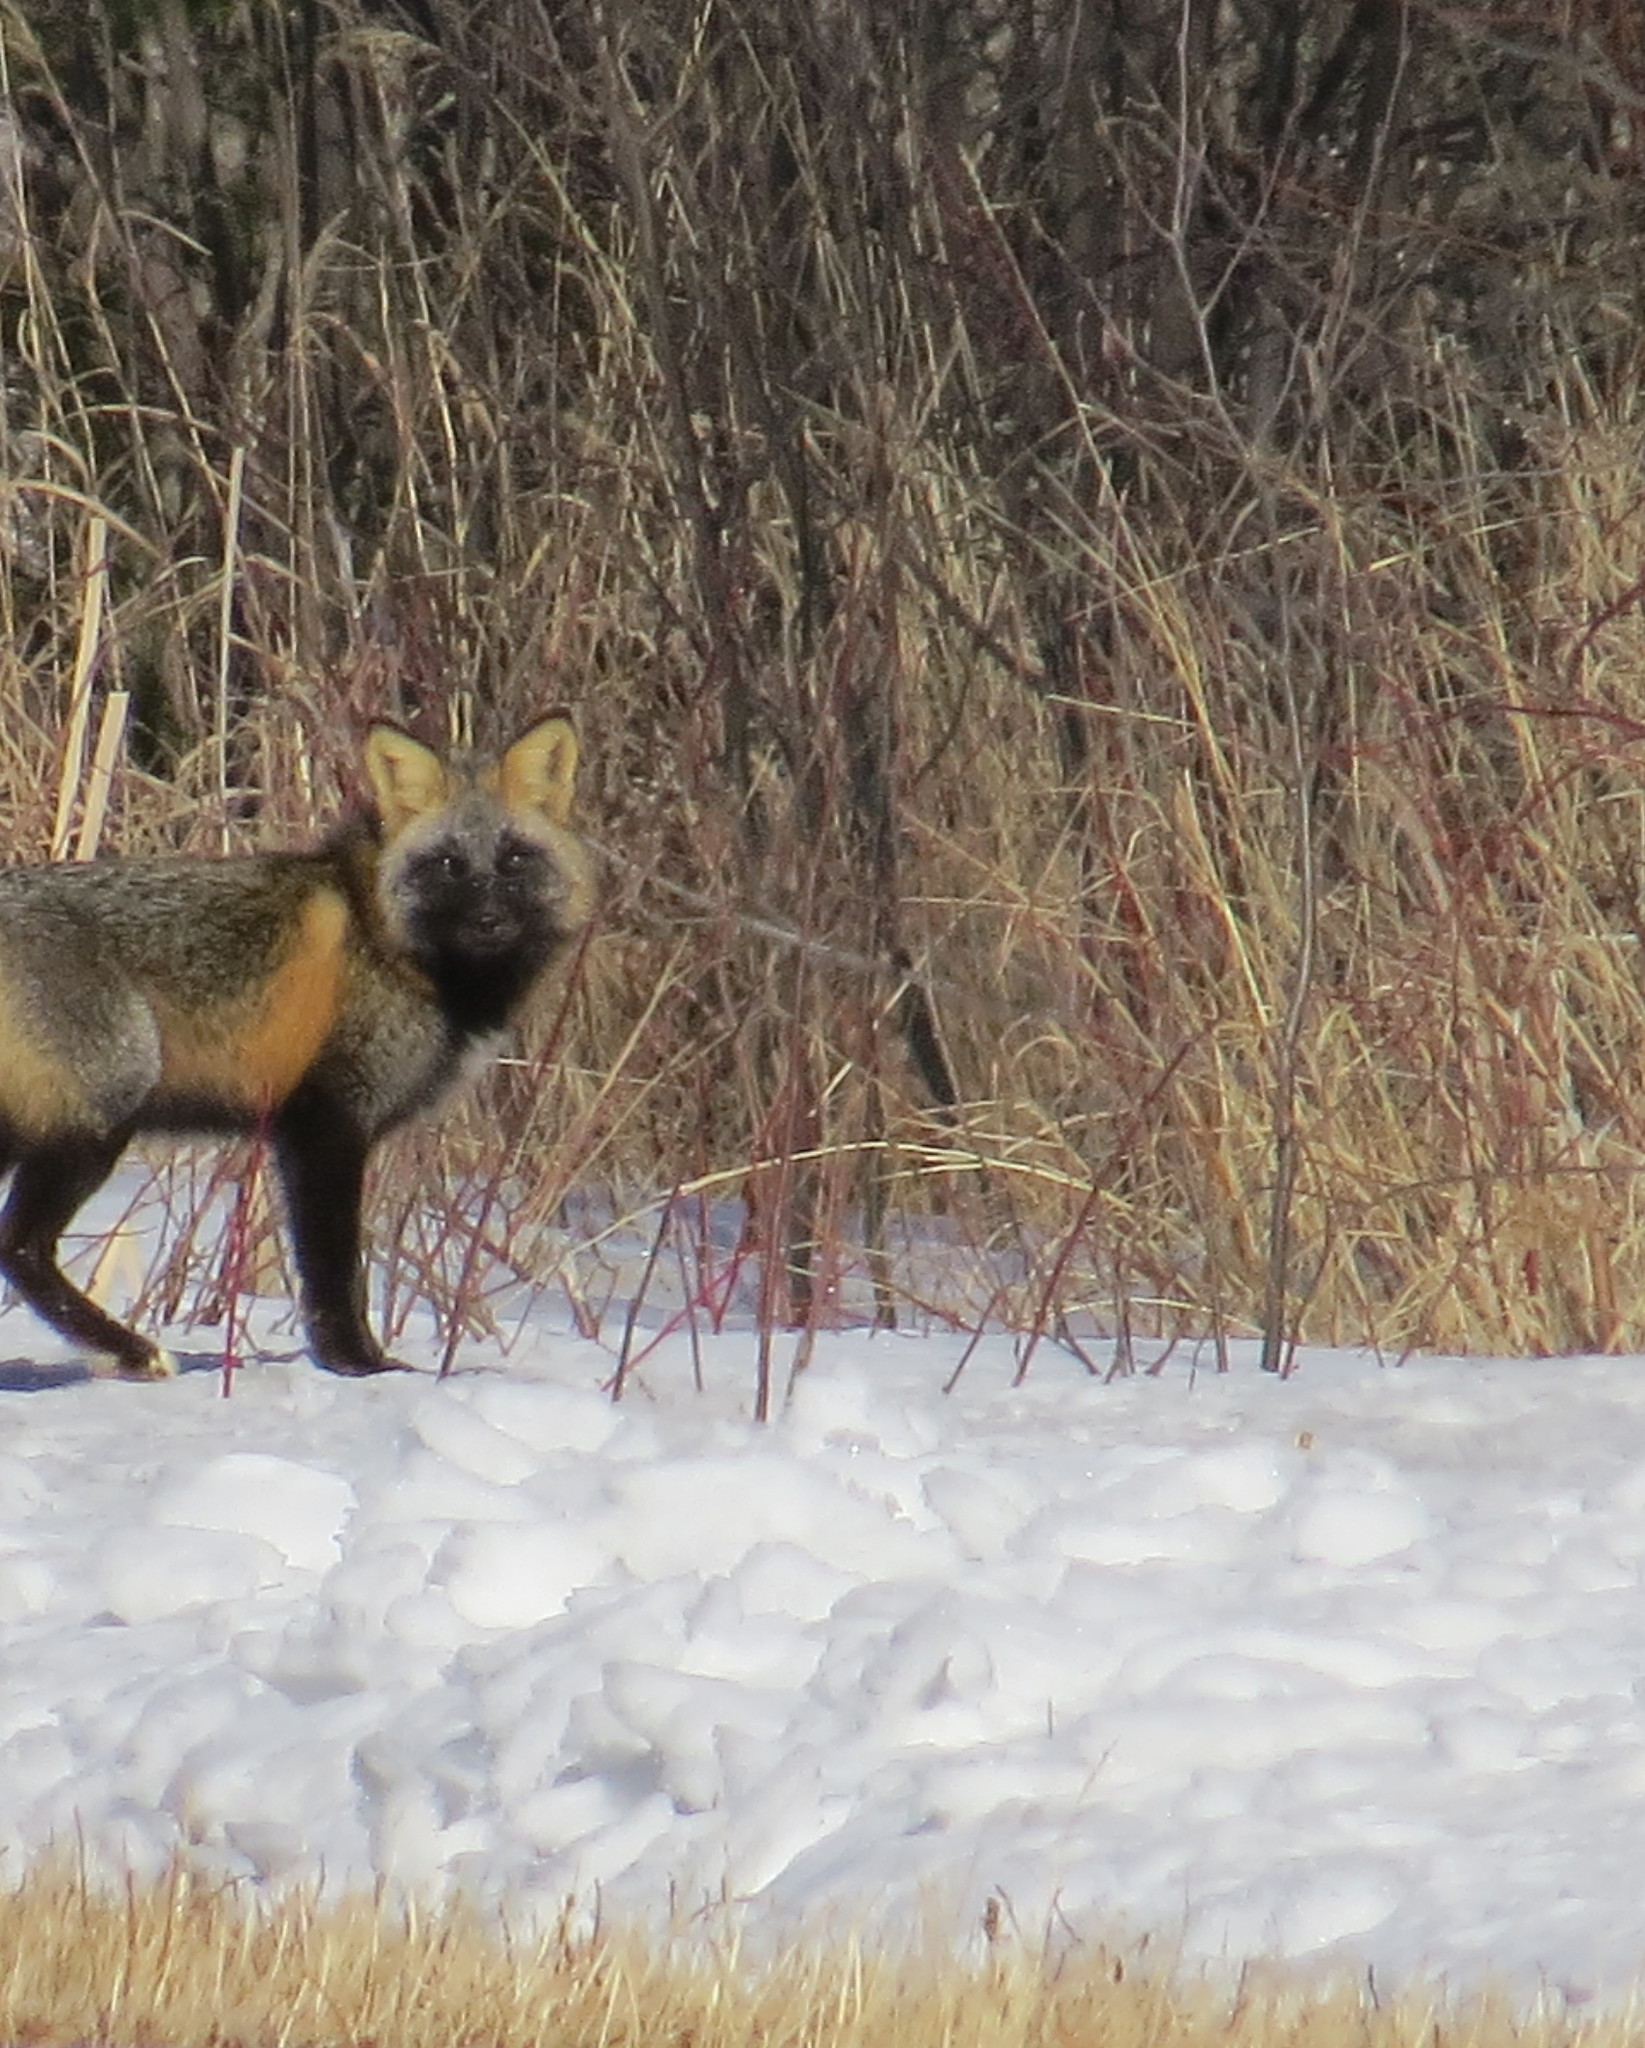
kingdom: Animalia
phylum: Chordata
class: Mammalia
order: Carnivora
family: Canidae
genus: Vulpes
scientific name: Vulpes vulpes
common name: Red fox
